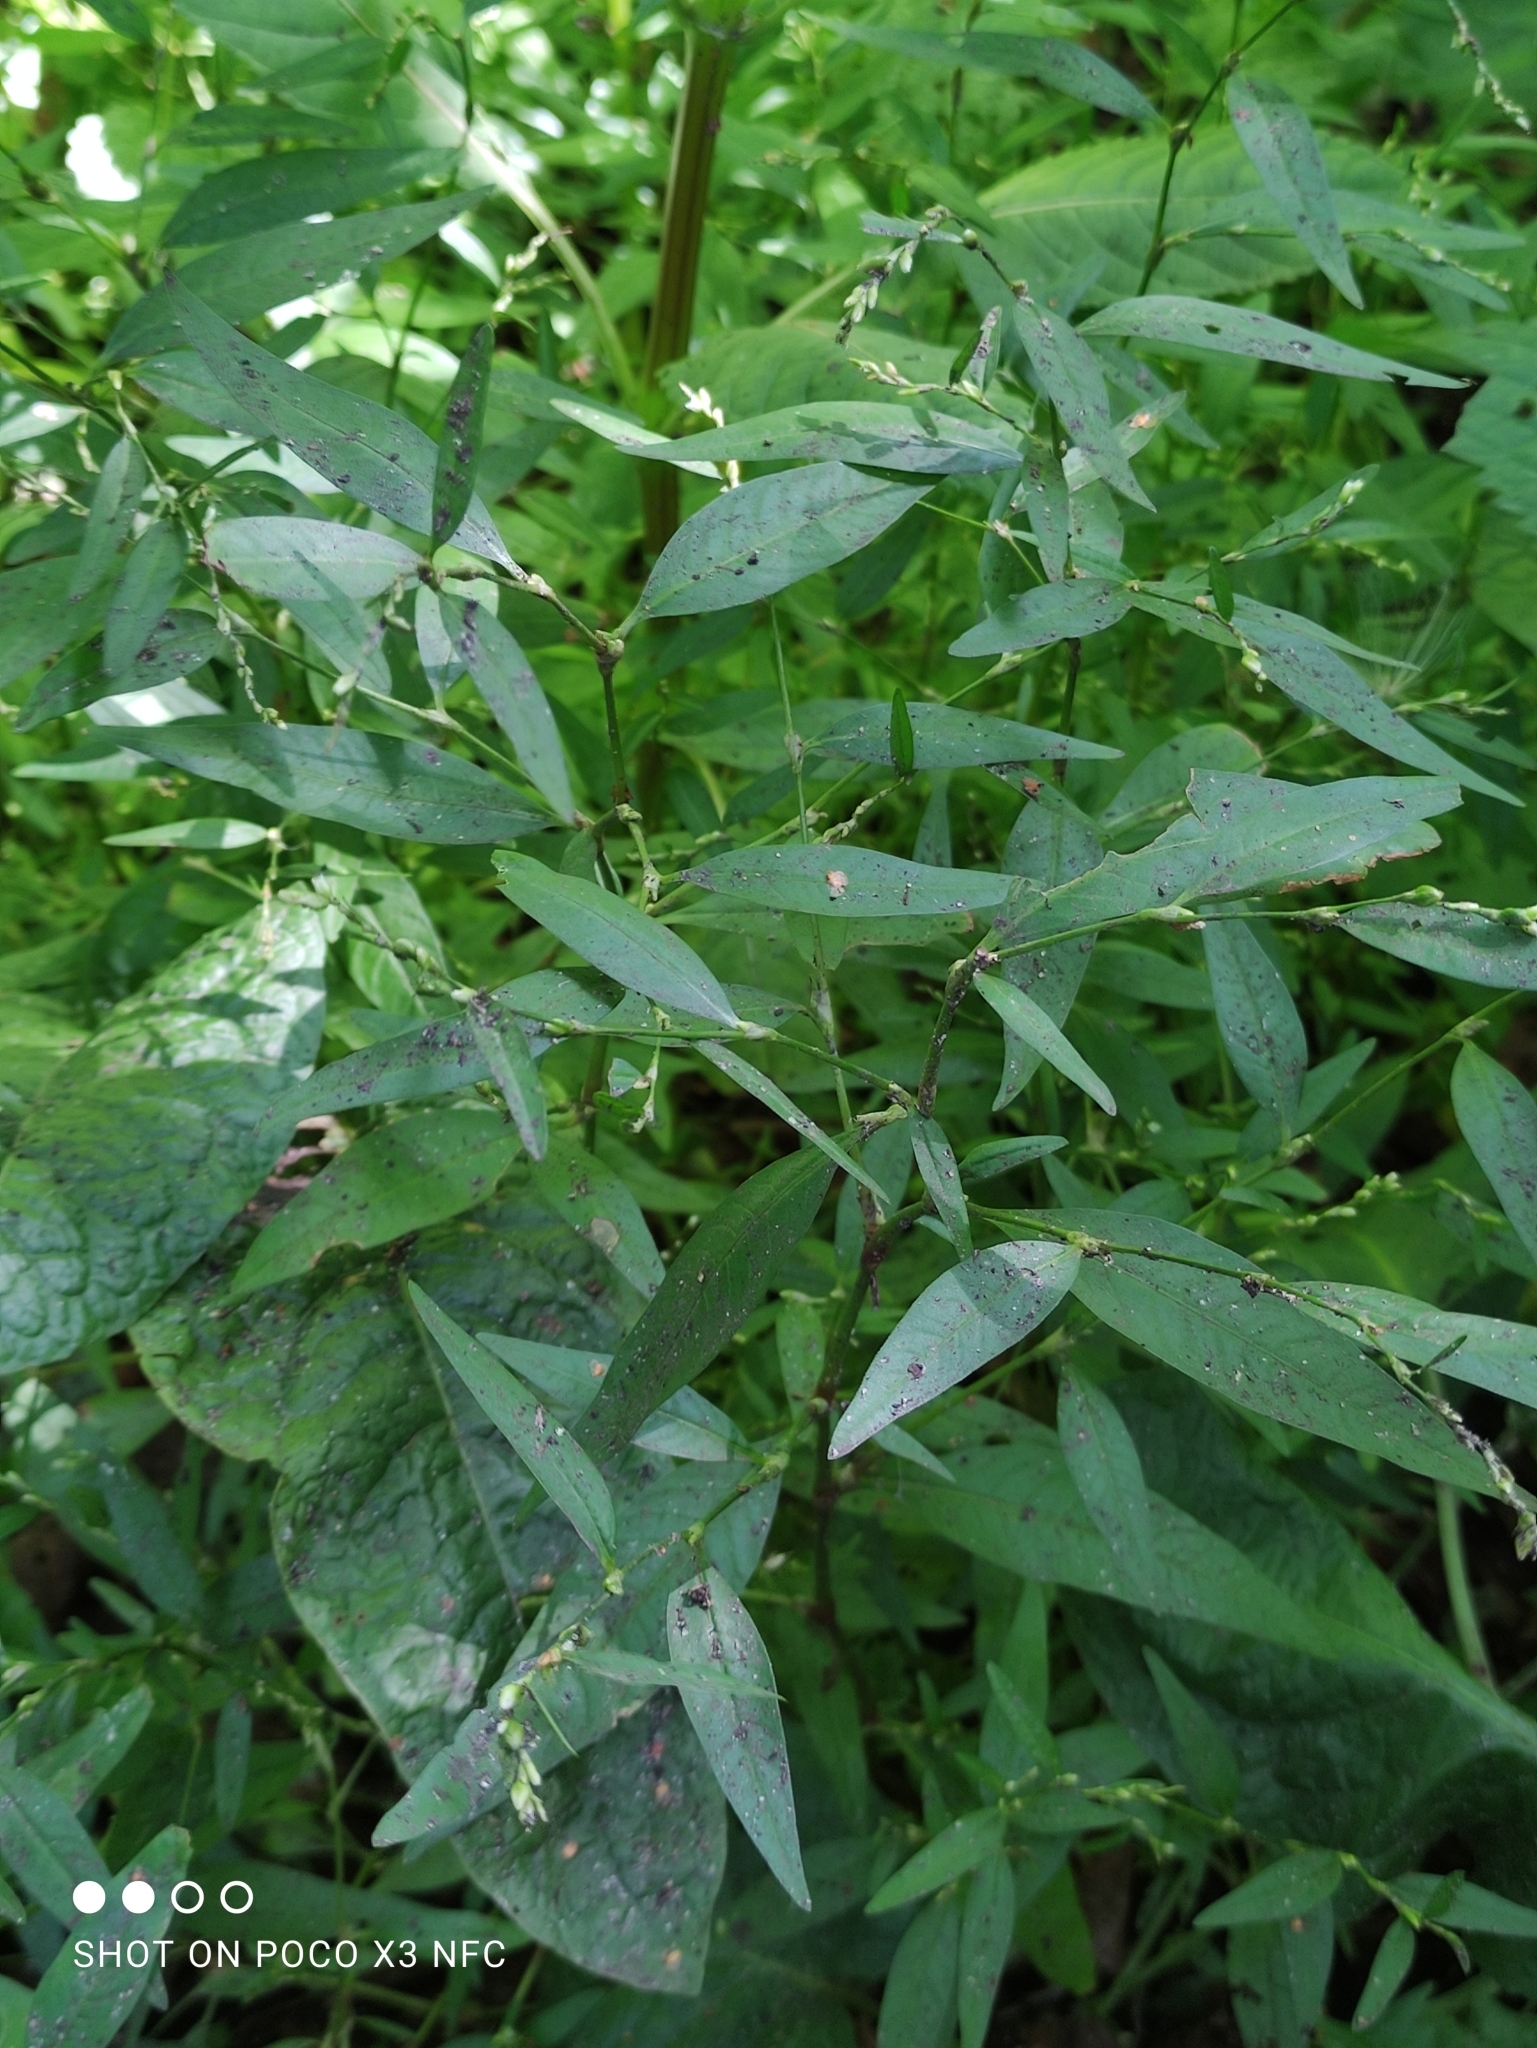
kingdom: Plantae
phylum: Tracheophyta
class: Magnoliopsida
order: Caryophyllales
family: Polygonaceae
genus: Persicaria
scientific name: Persicaria hydropiper
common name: Water-pepper
